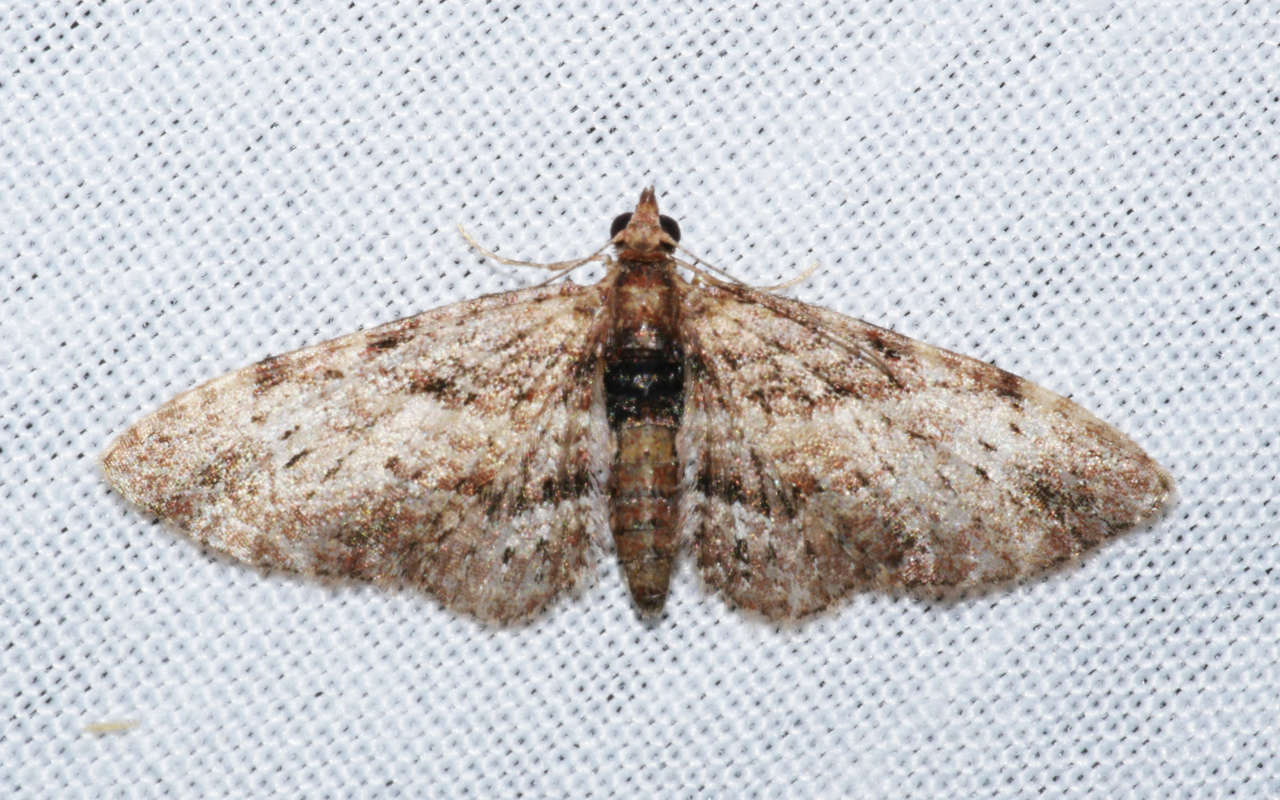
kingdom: Animalia
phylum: Arthropoda
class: Insecta
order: Lepidoptera
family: Geometridae
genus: Chloroclystis
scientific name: Chloroclystis approximata
